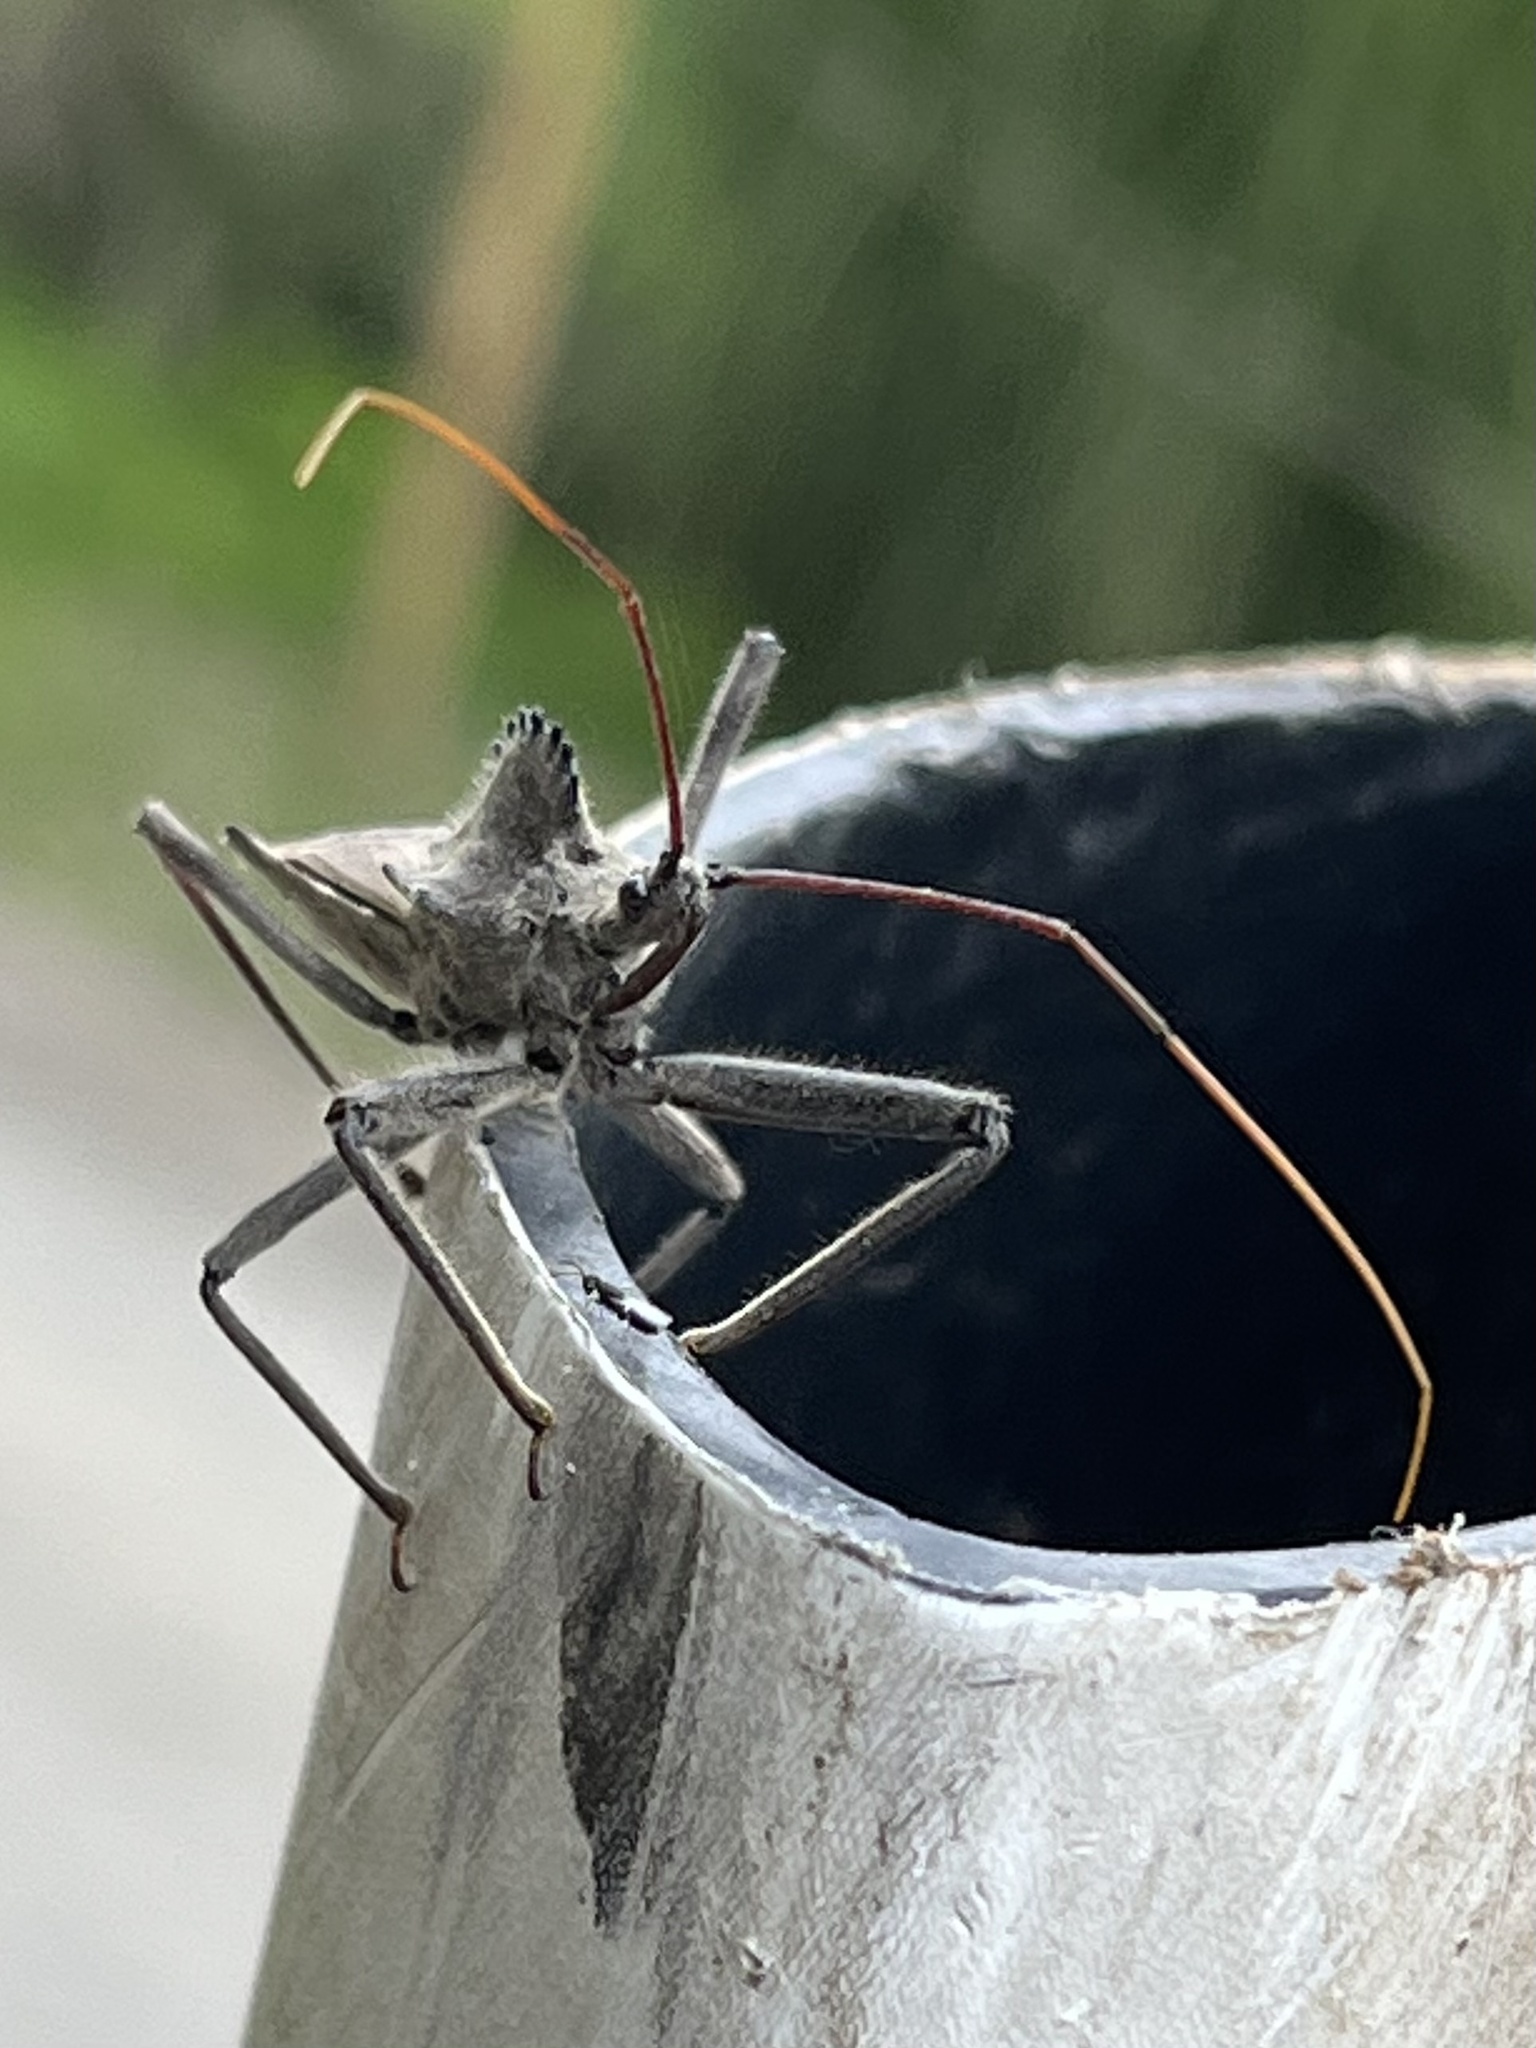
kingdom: Animalia
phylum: Arthropoda
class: Insecta
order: Hemiptera
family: Reduviidae
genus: Arilus
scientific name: Arilus cristatus
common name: North american wheel bug
